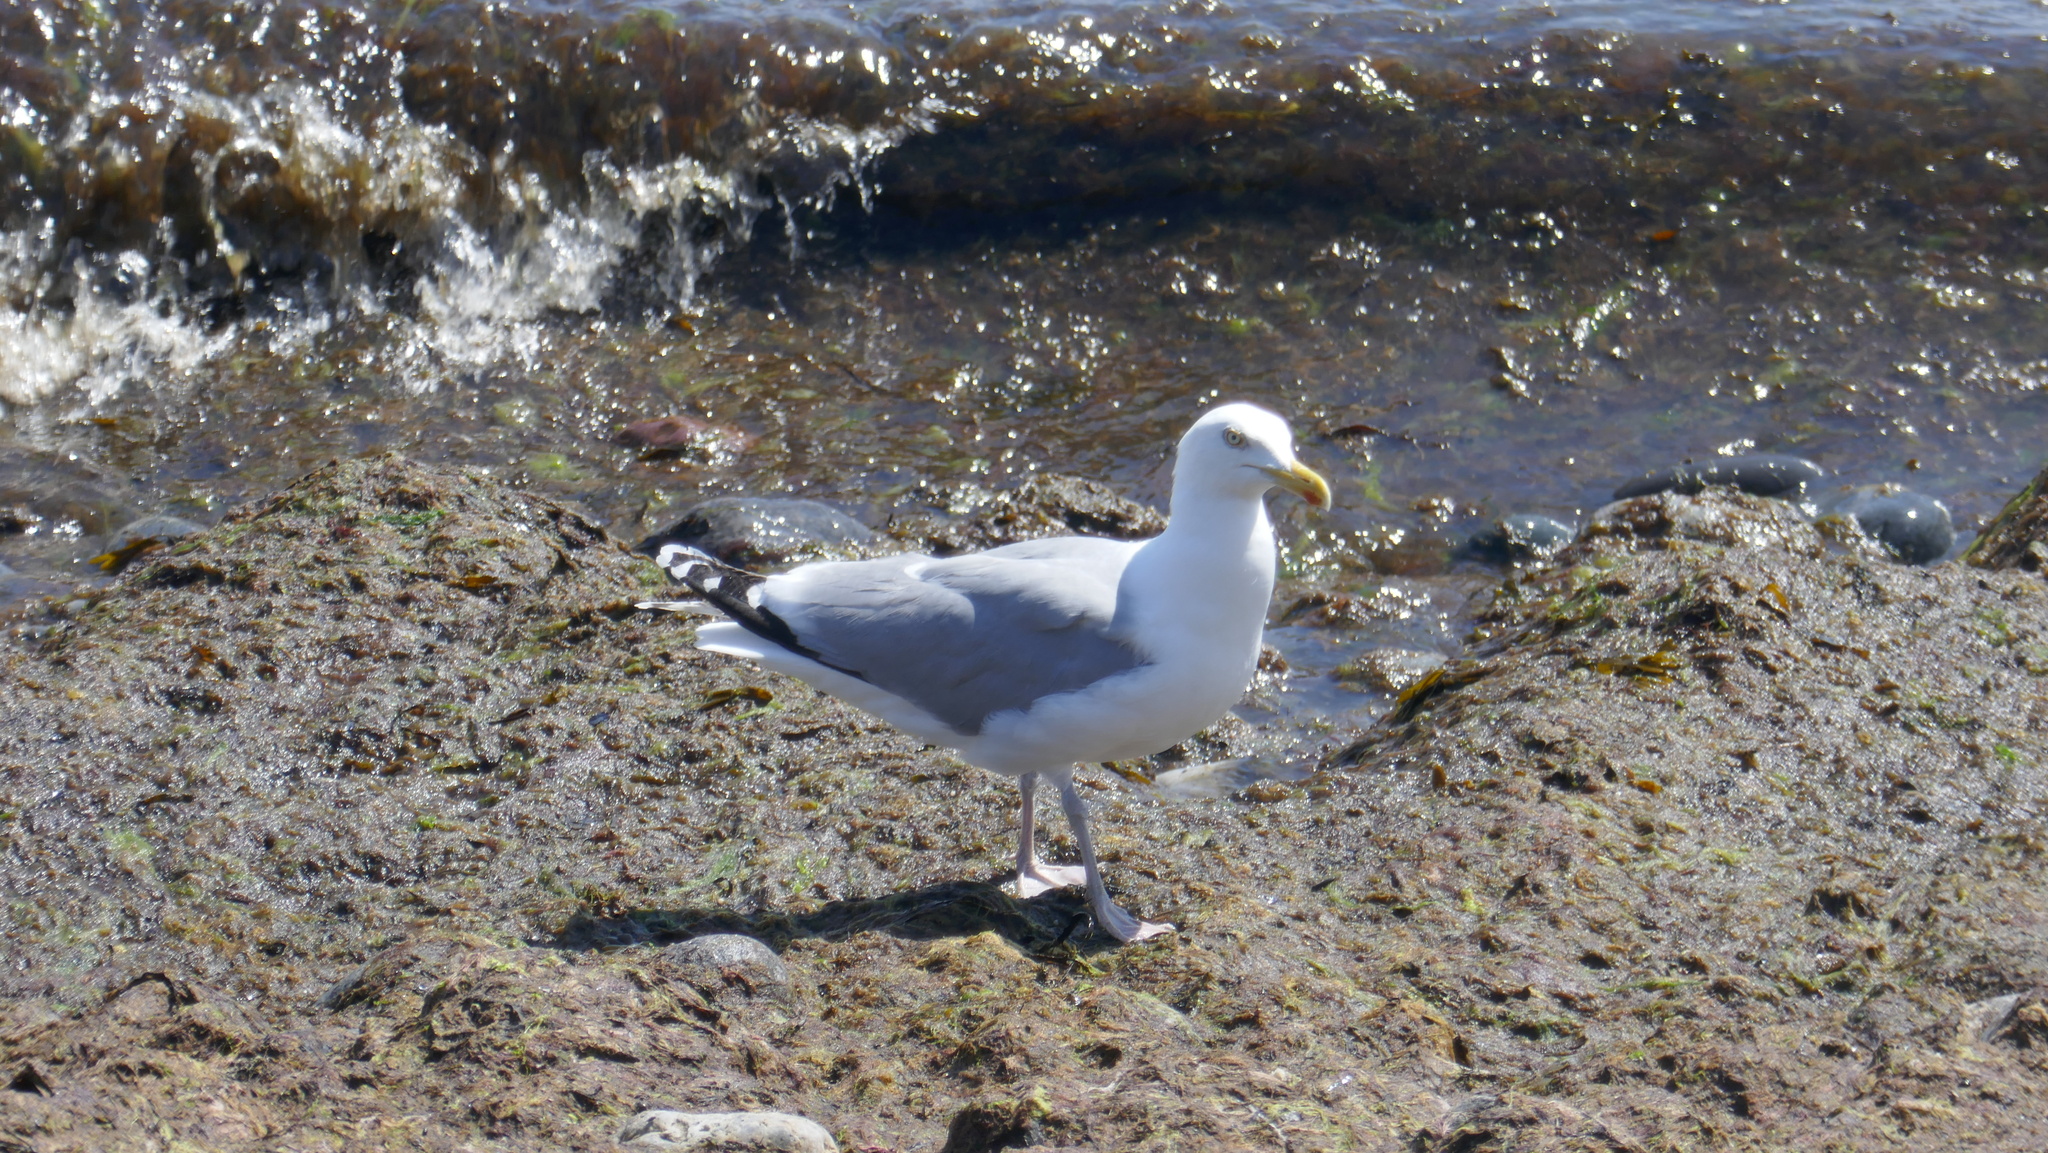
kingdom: Animalia
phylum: Chordata
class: Aves
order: Charadriiformes
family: Laridae
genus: Larus
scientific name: Larus argentatus
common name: Herring gull
